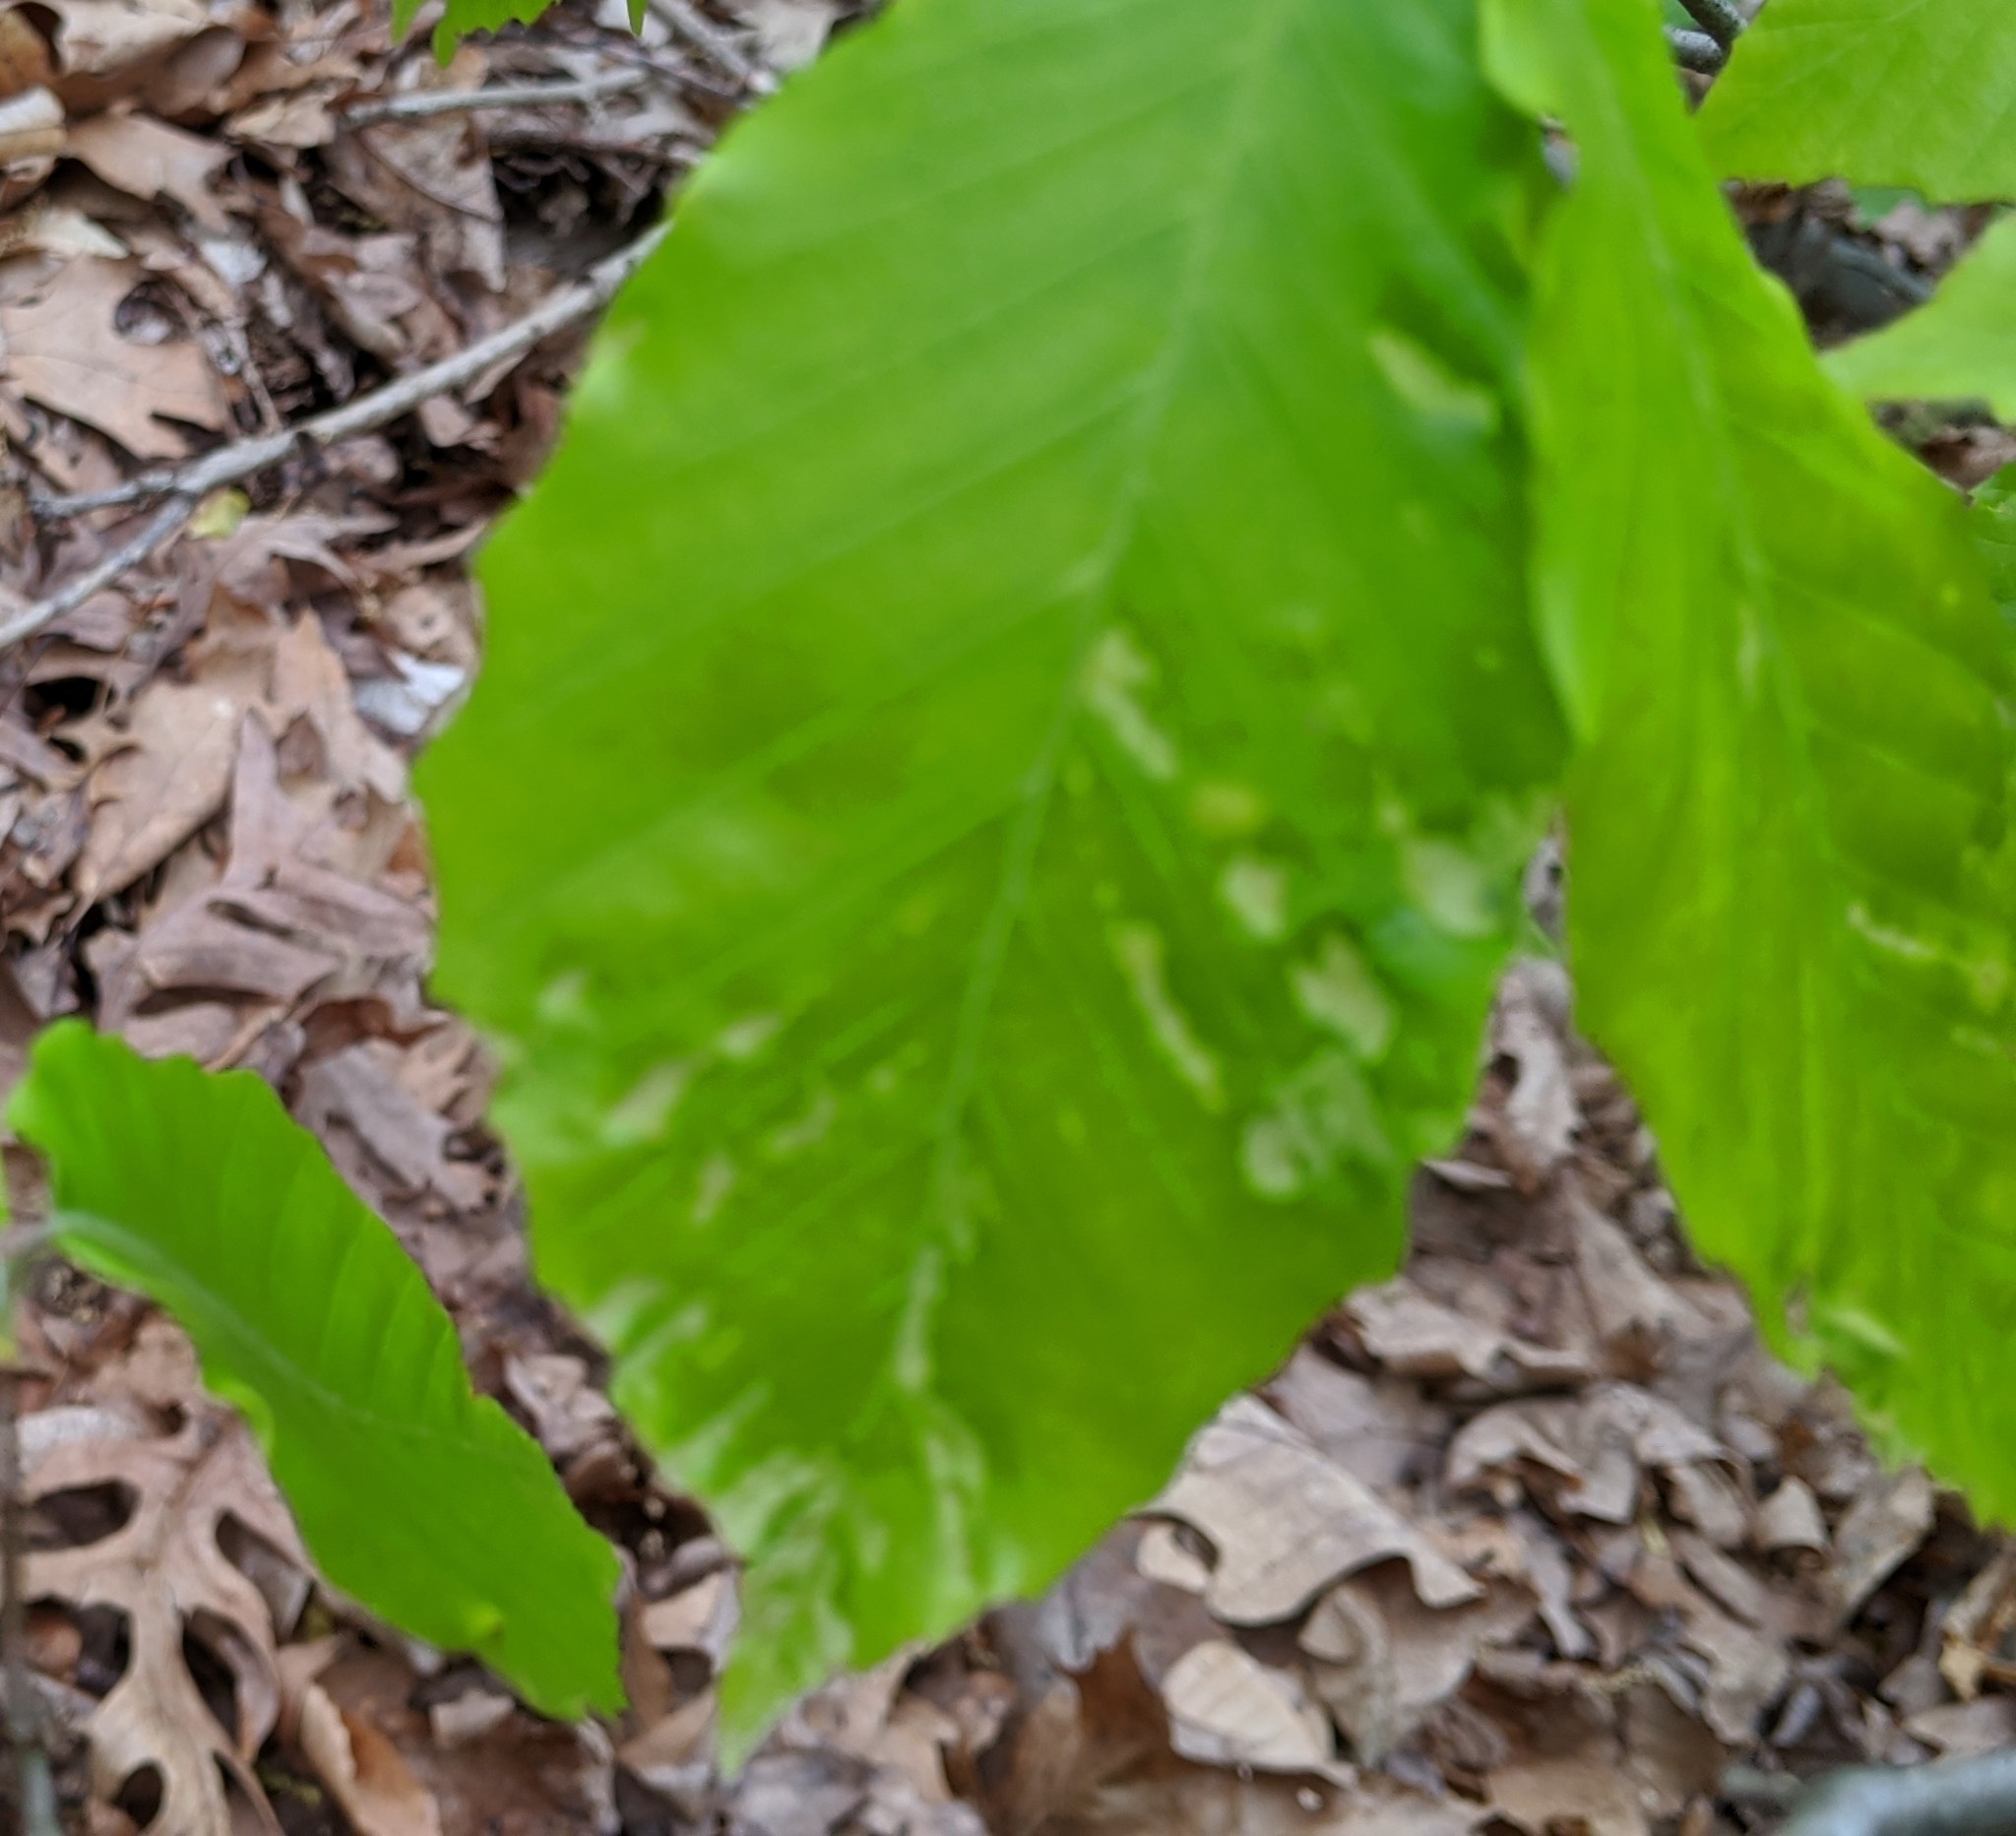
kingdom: Animalia
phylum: Arthropoda
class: Arachnida
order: Trombidiformes
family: Eriophyidae
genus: Acalitus
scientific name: Acalitus
